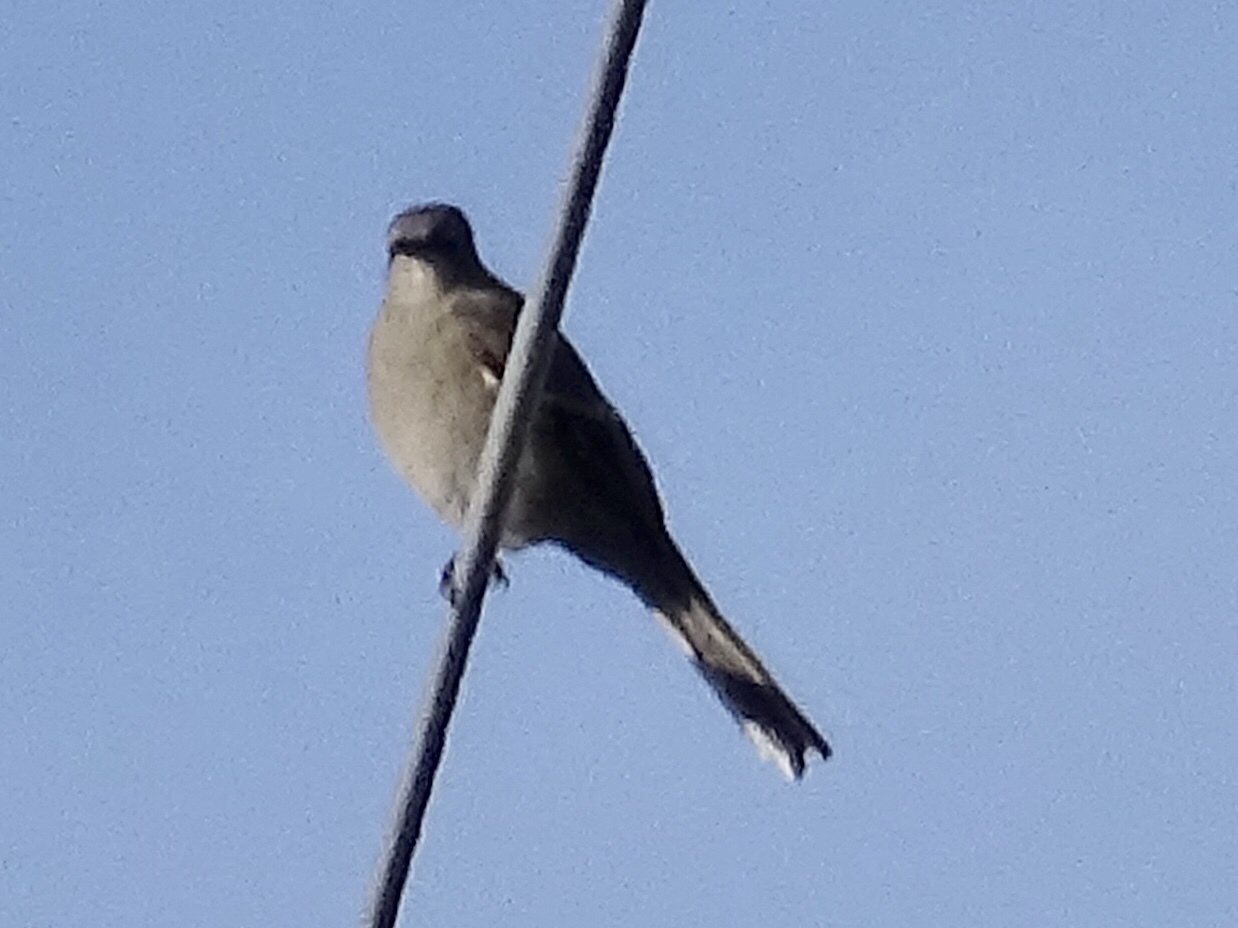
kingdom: Animalia
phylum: Chordata
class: Aves
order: Passeriformes
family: Turdidae
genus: Myadestes
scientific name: Myadestes townsendi
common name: Townsend's solitaire
